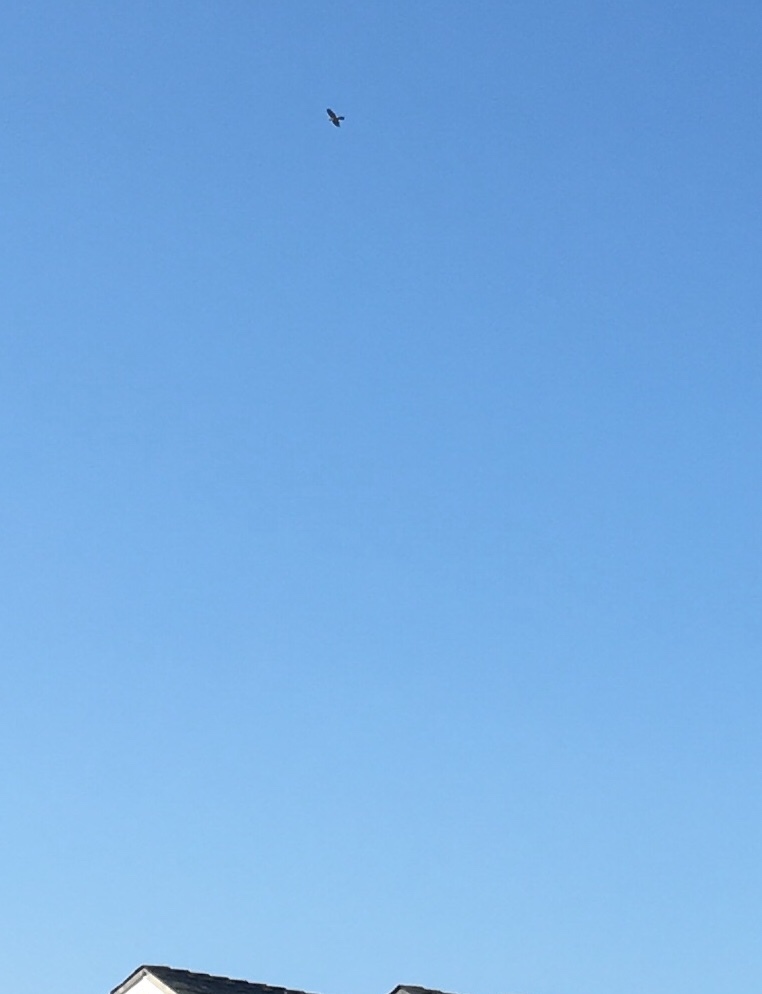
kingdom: Animalia
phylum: Chordata
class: Aves
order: Accipitriformes
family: Accipitridae
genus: Accipiter
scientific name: Accipiter cooperii
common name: Cooper's hawk
